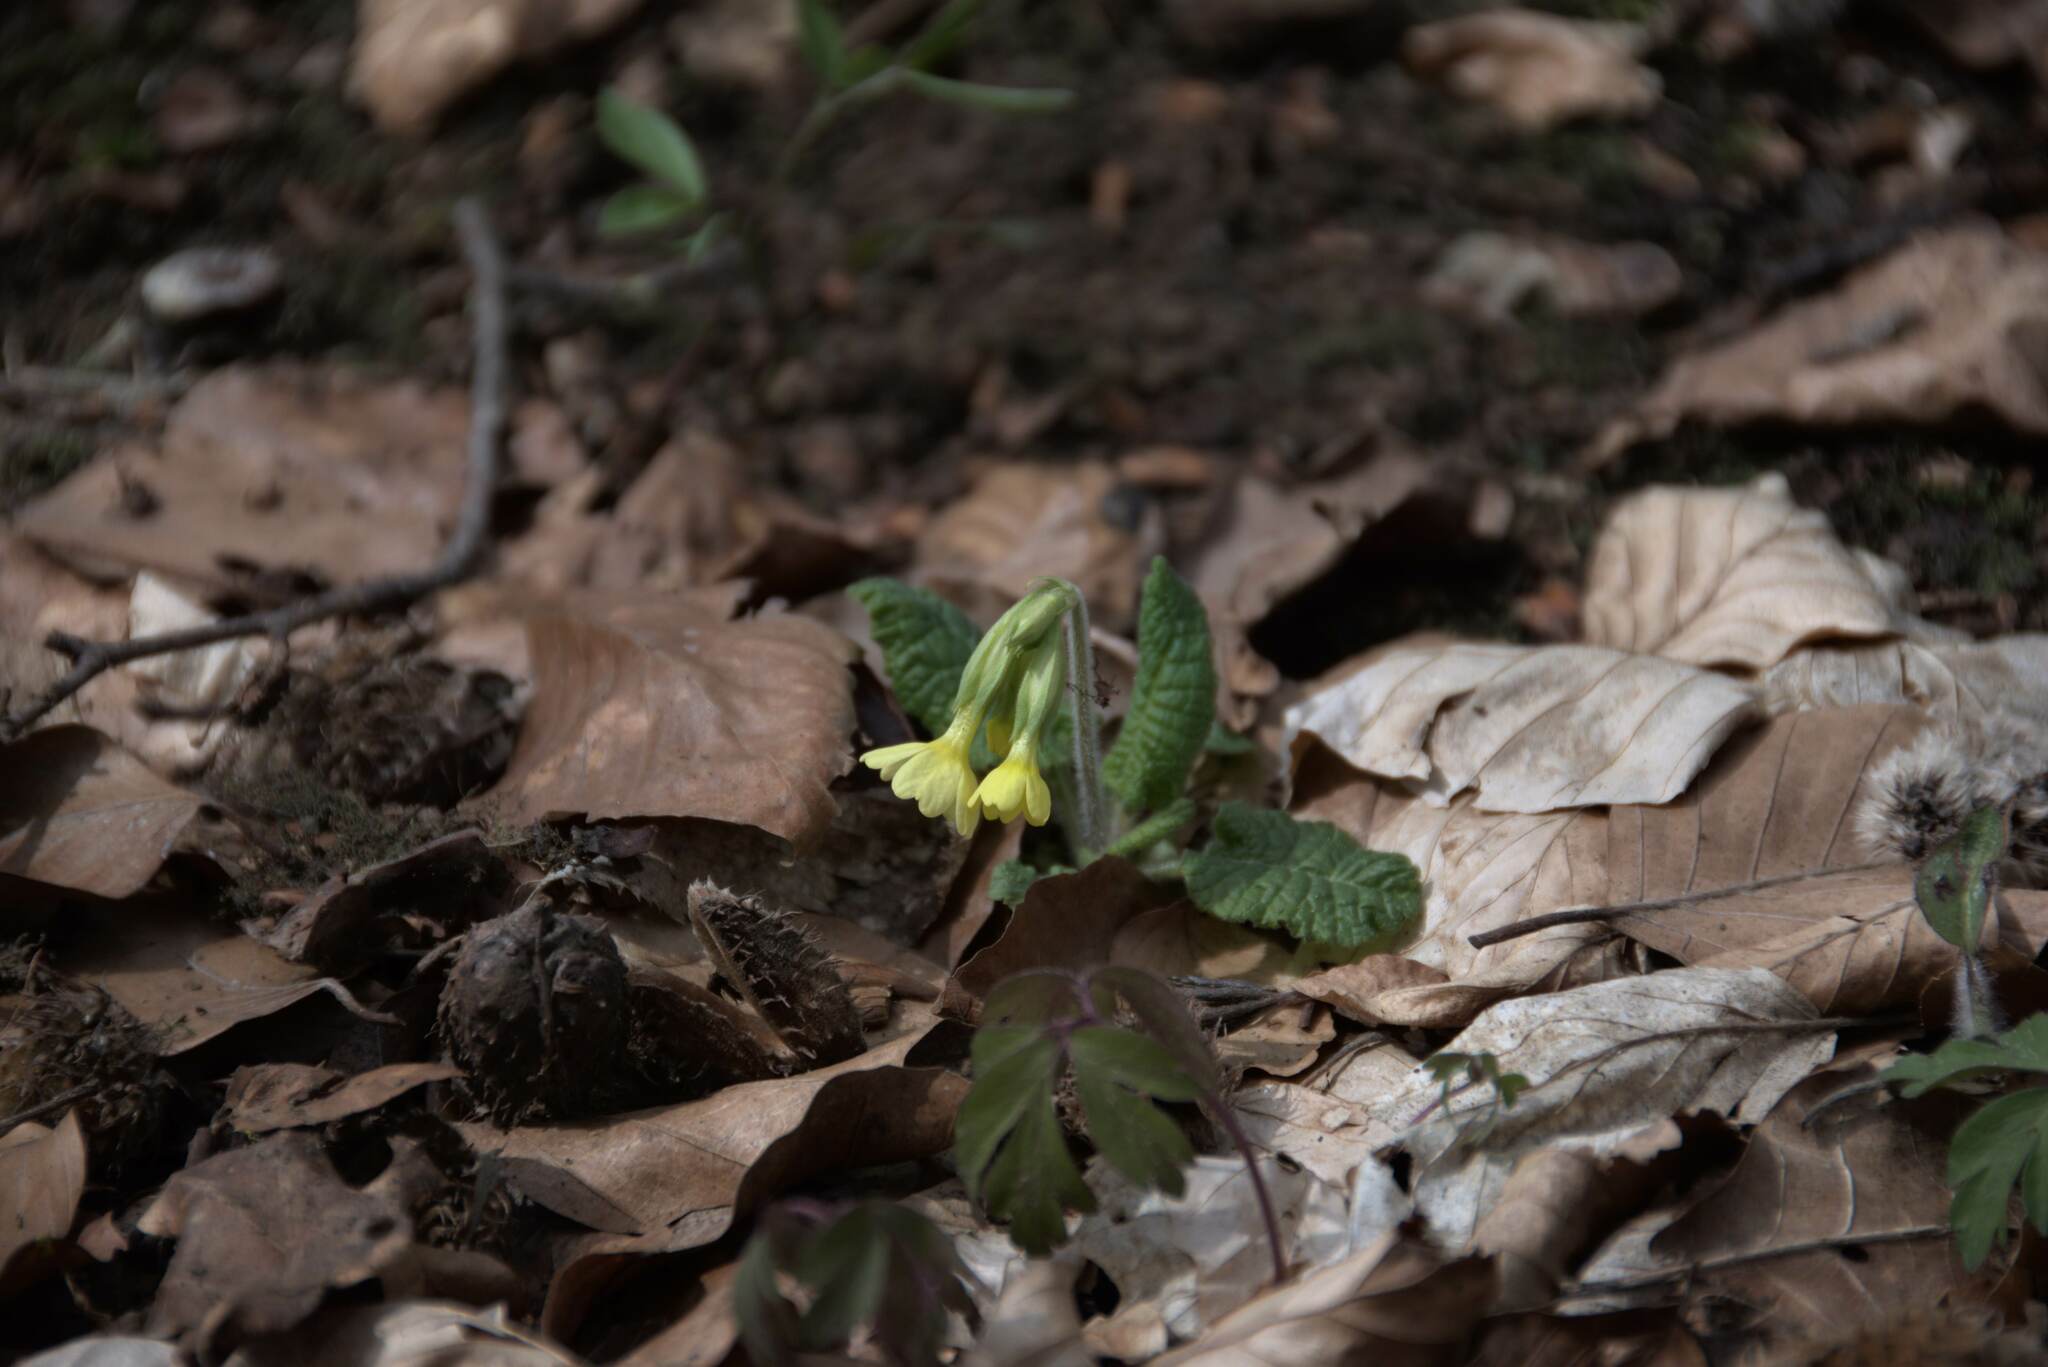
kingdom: Plantae
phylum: Tracheophyta
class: Magnoliopsida
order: Ericales
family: Primulaceae
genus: Primula
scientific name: Primula elatior
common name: Oxlip
